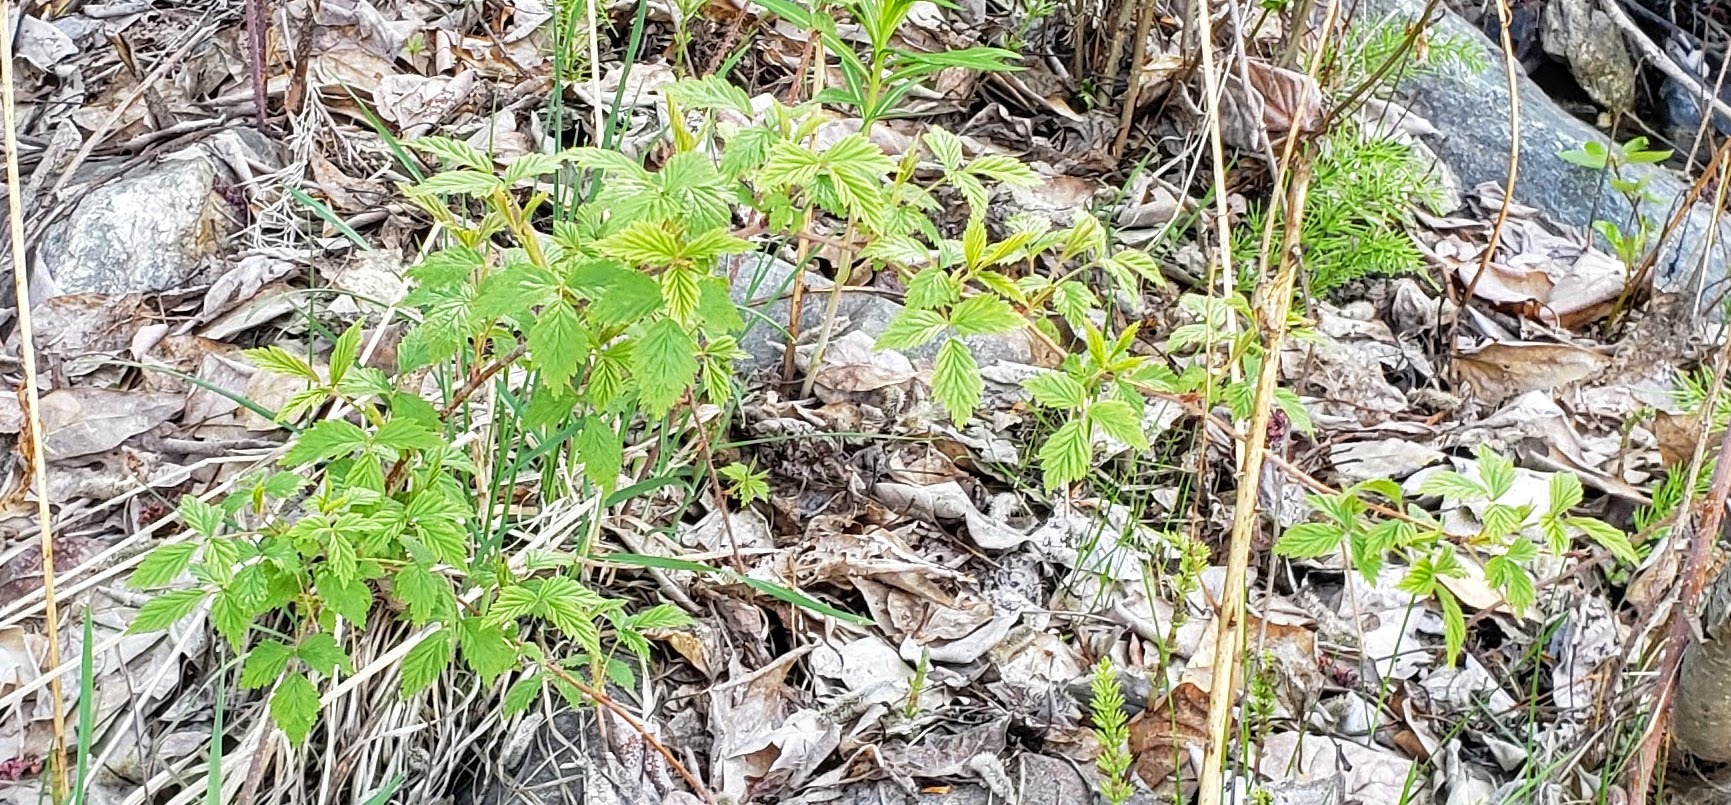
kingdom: Plantae
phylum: Tracheophyta
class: Magnoliopsida
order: Rosales
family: Rosaceae
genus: Rubus
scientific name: Rubus idaeus
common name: Raspberry
